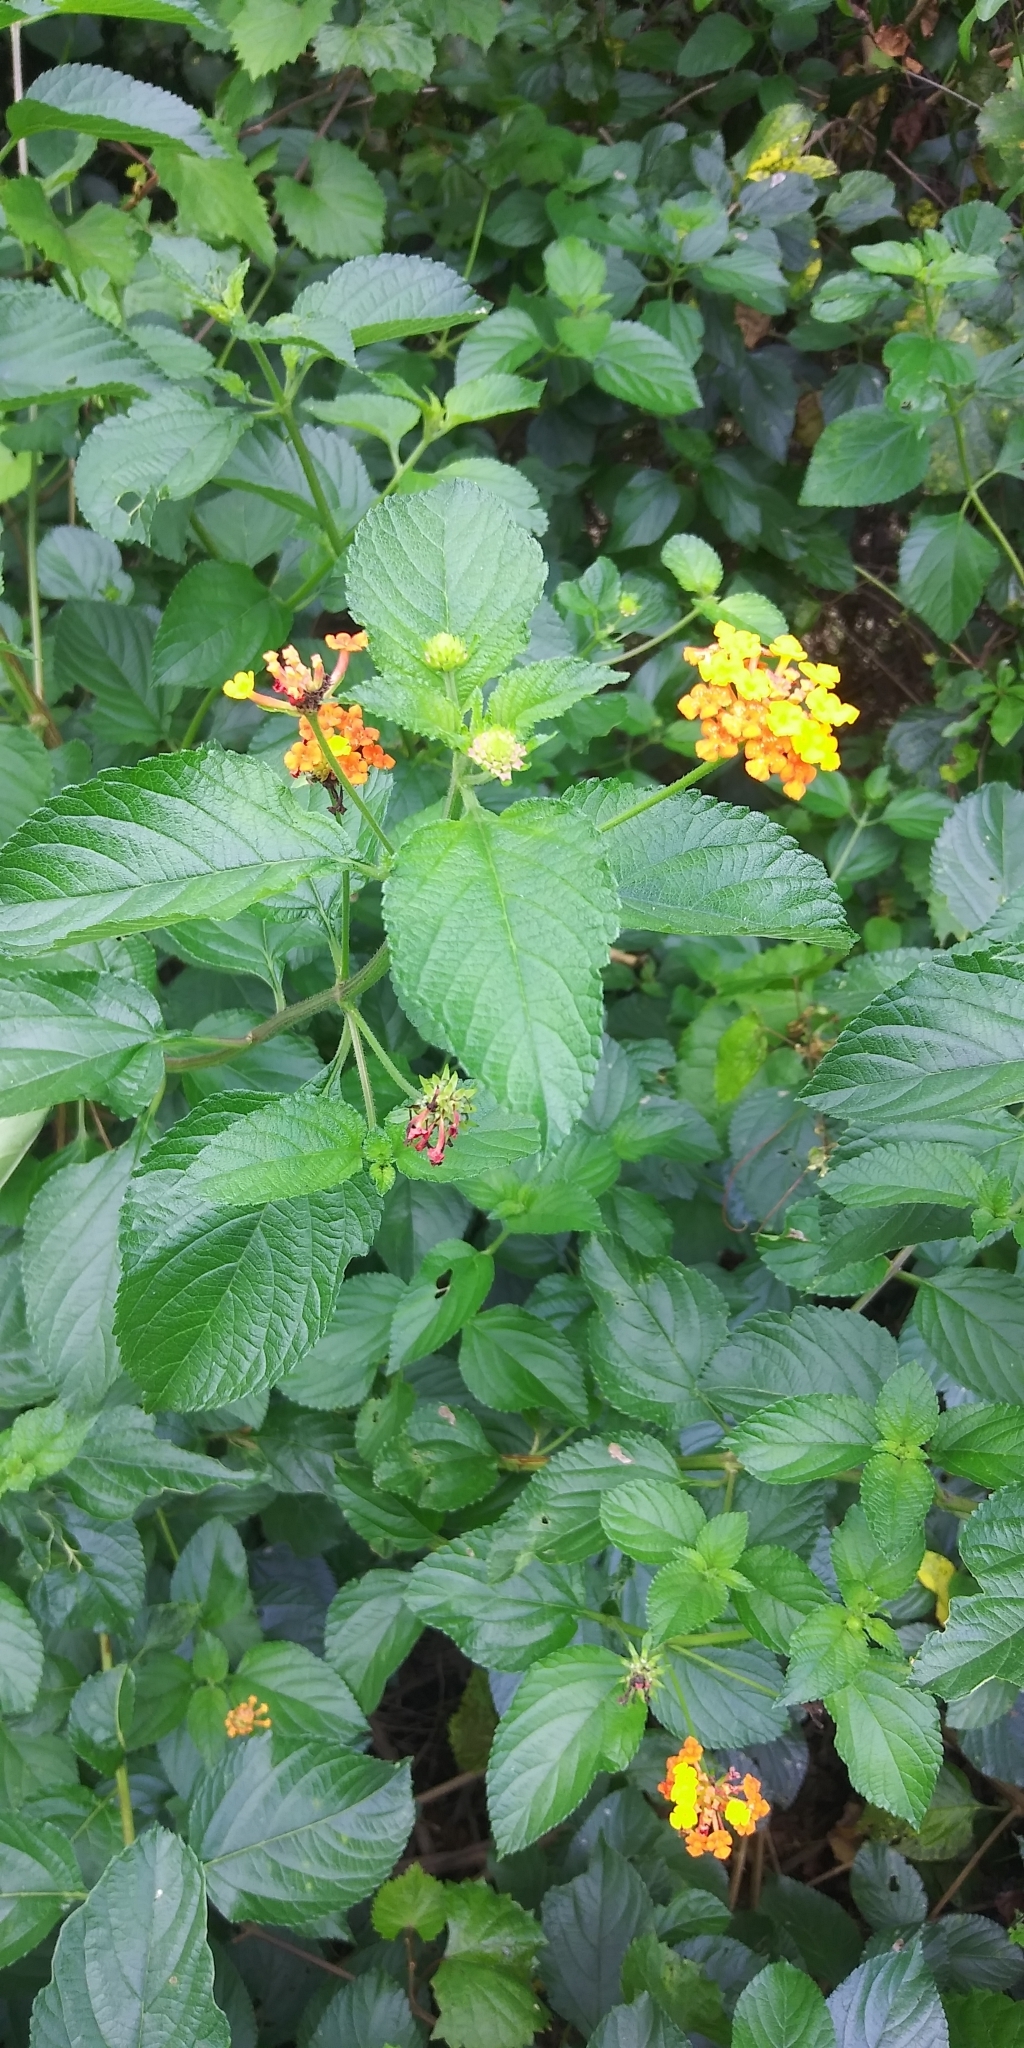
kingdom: Plantae
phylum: Tracheophyta
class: Magnoliopsida
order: Lamiales
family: Verbenaceae
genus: Lantana
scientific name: Lantana strigocamara
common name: Lantana
